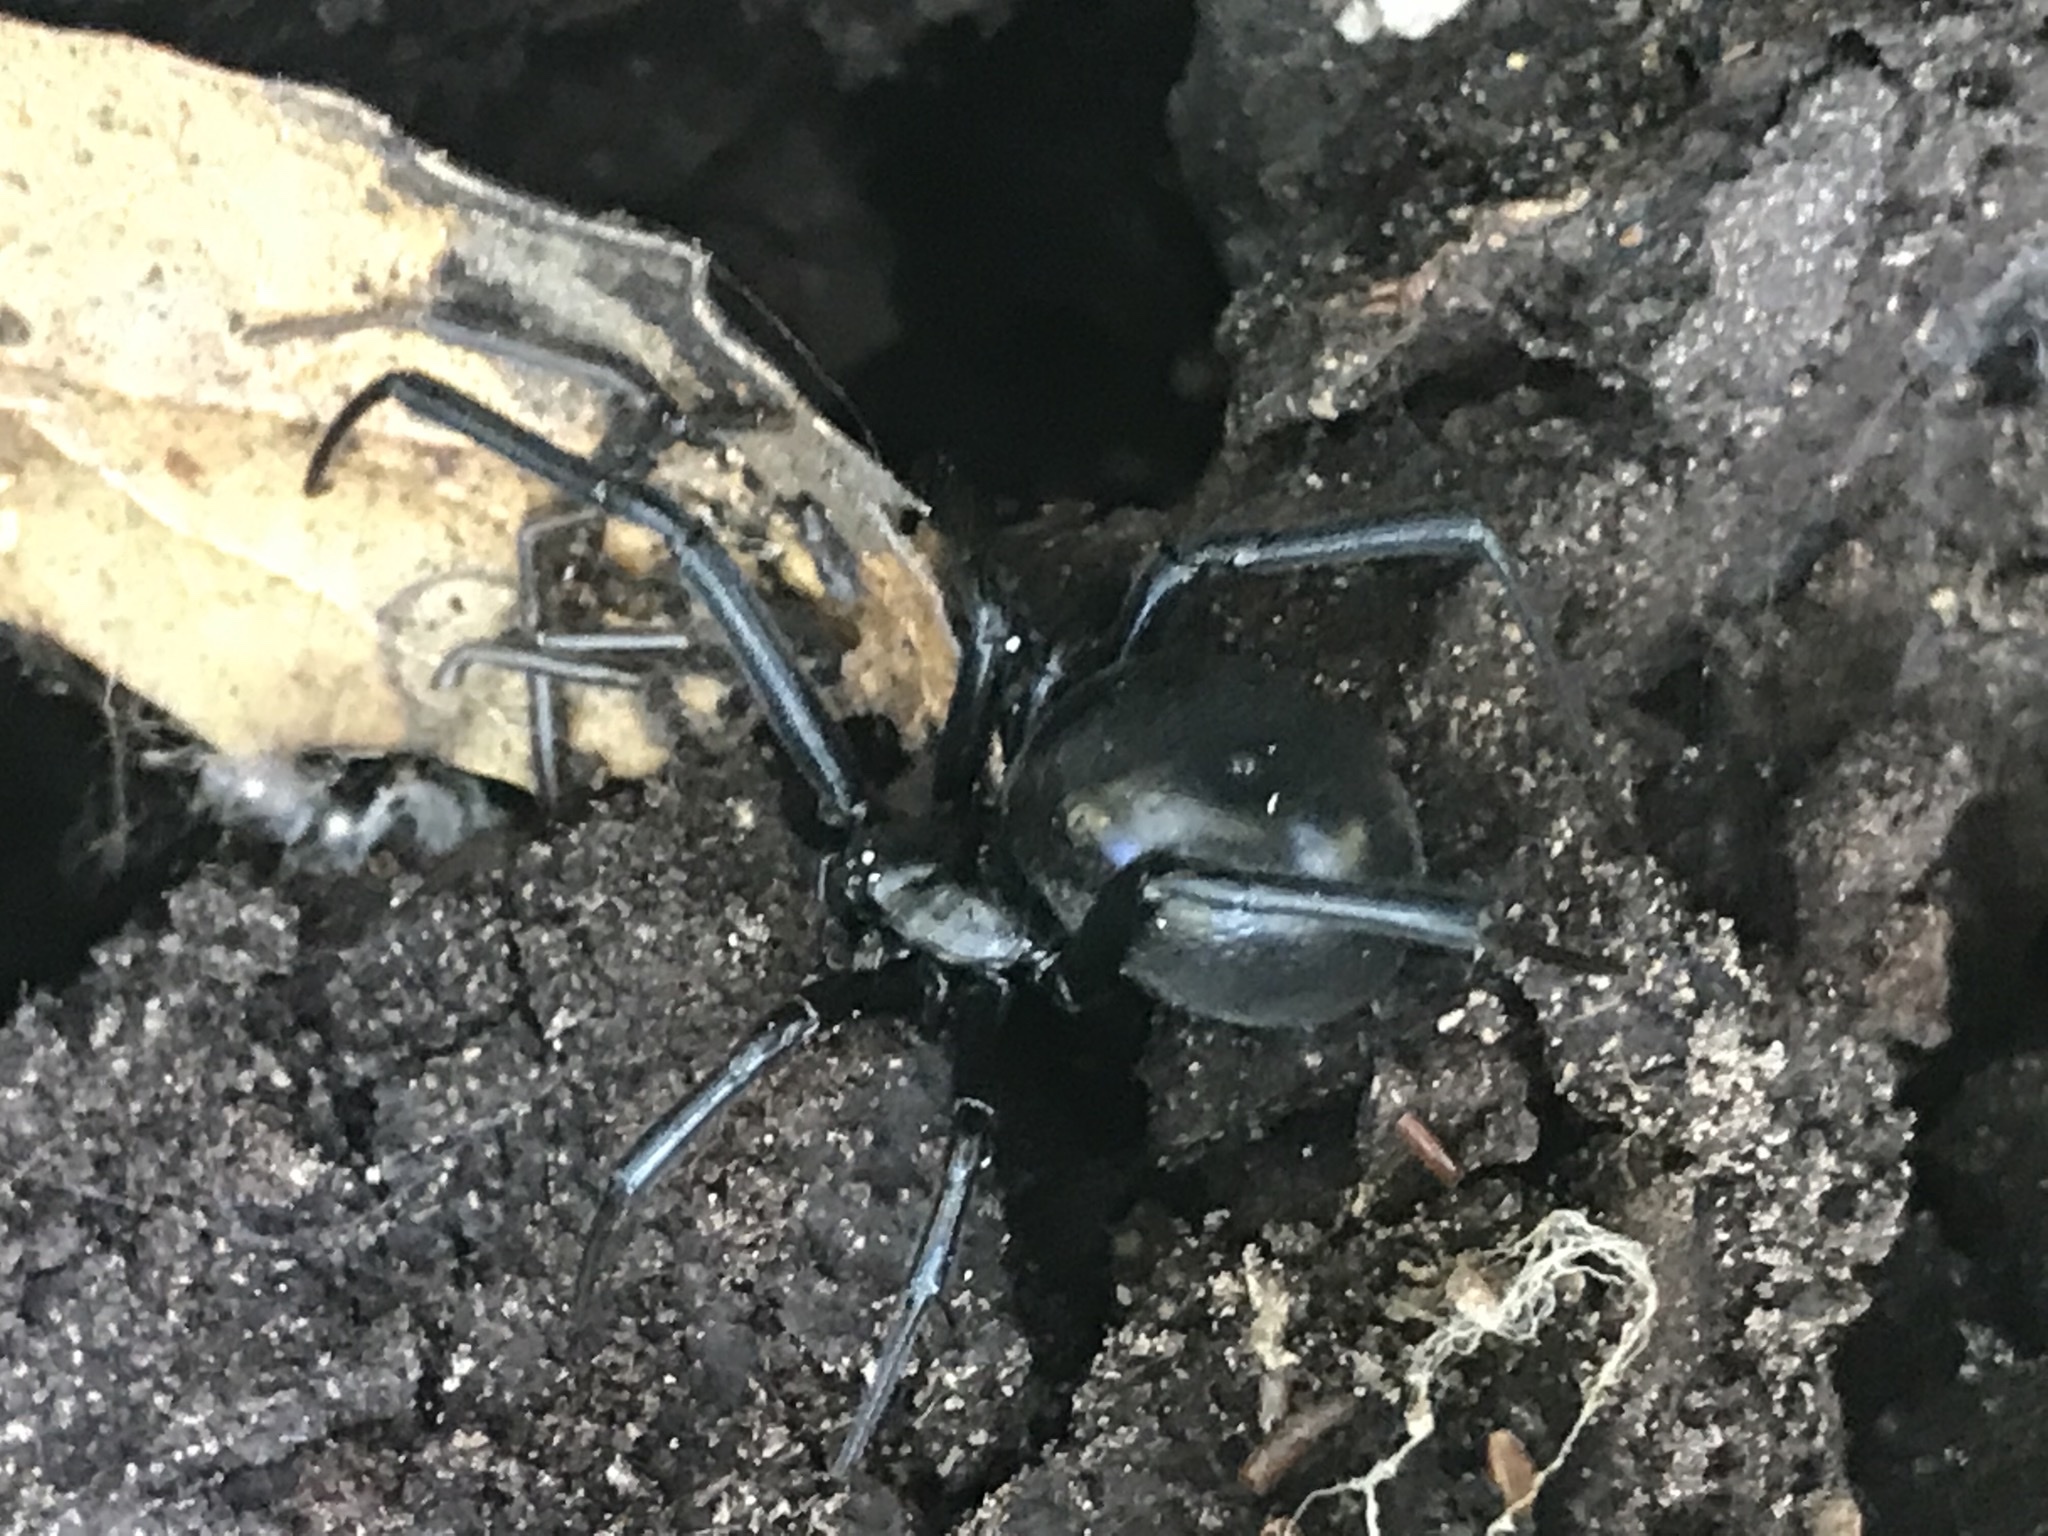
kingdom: Animalia
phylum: Arthropoda
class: Arachnida
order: Araneae
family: Theridiidae
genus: Latrodectus
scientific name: Latrodectus hesperus
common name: Western black widow
